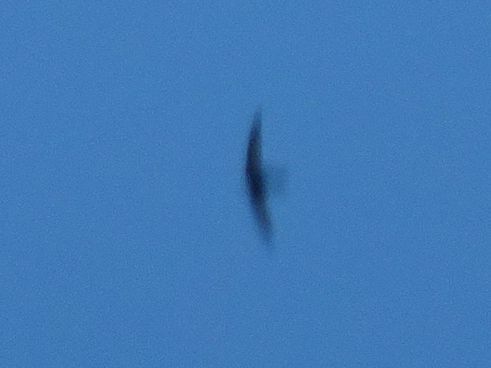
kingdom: Animalia
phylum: Chordata
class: Aves
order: Apodiformes
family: Apodidae
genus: Apus
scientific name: Apus apus
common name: Common swift
